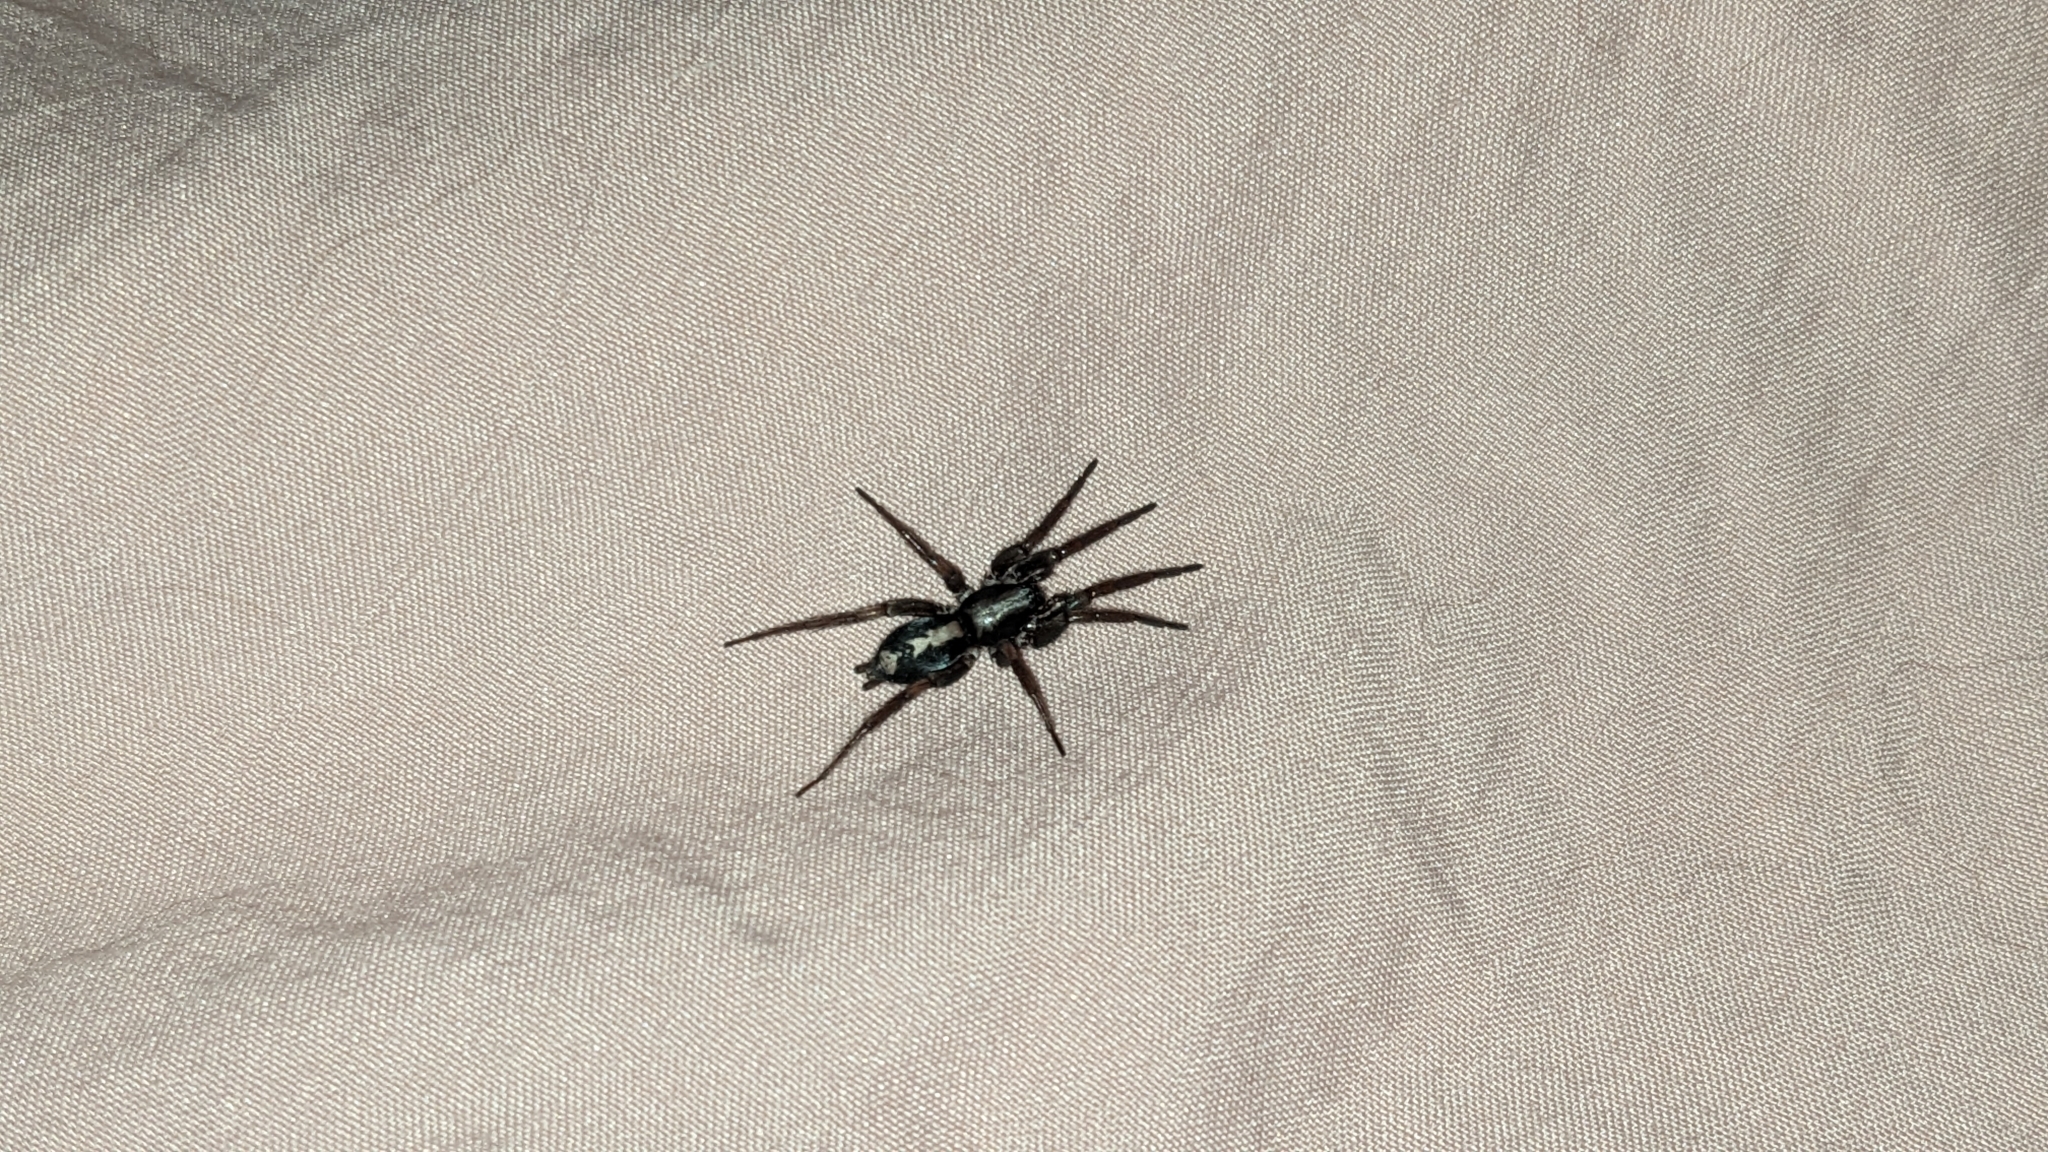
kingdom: Animalia
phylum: Arthropoda
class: Arachnida
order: Araneae
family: Gnaphosidae
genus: Herpyllus
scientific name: Herpyllus ecclesiasticus
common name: Eastern parson spider
